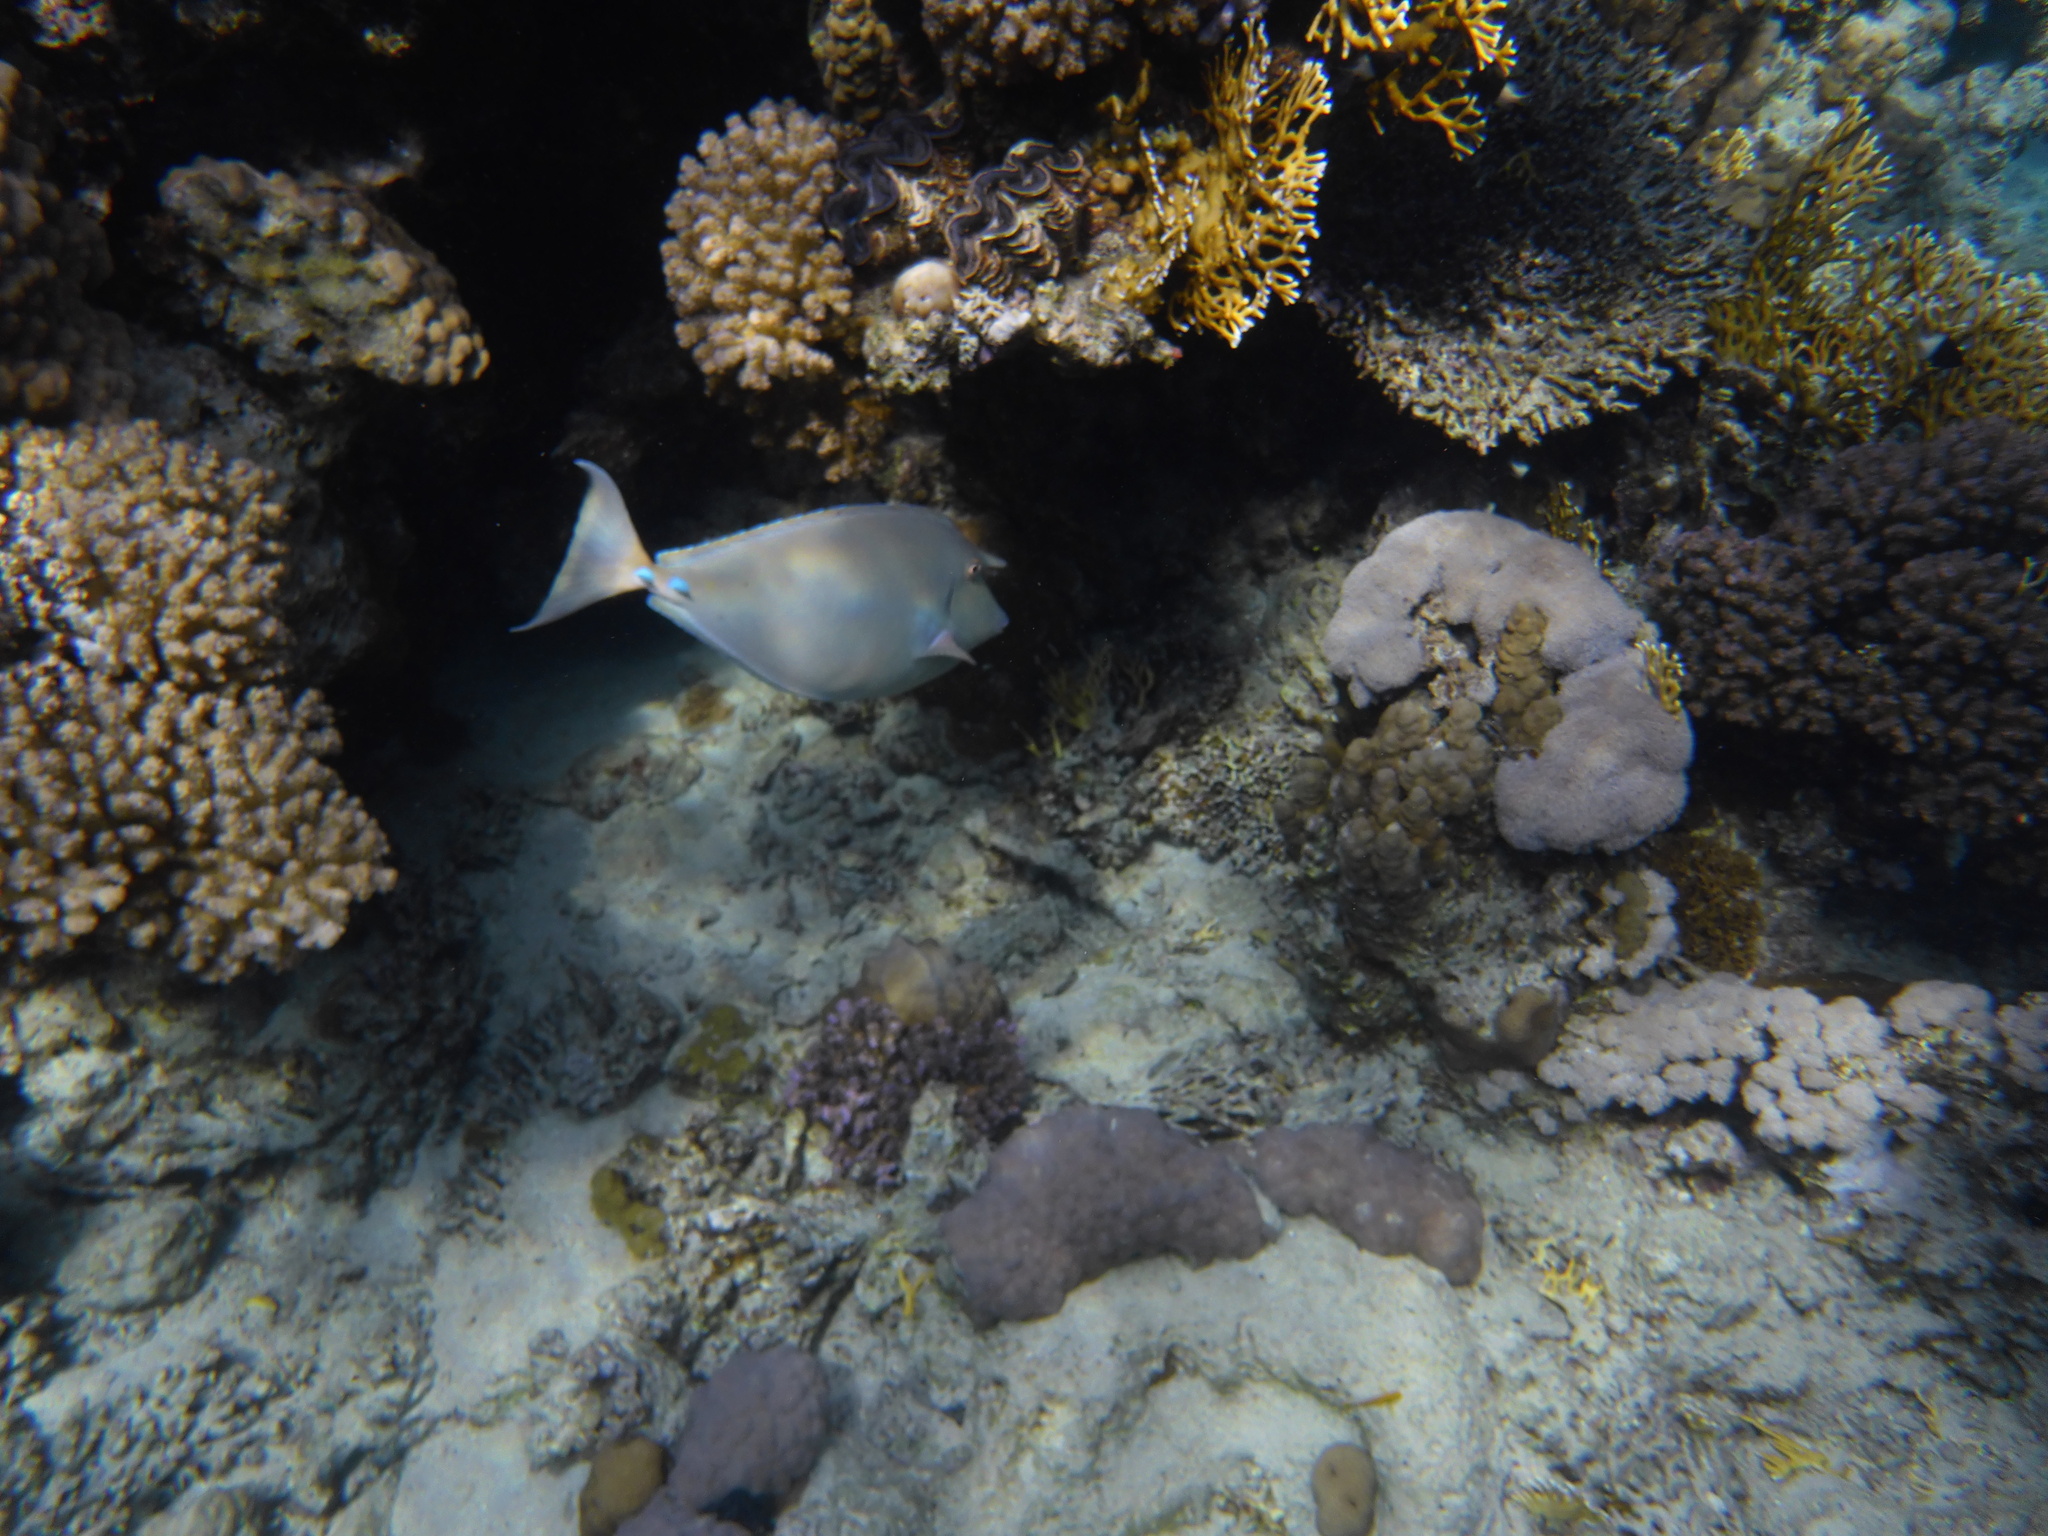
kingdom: Animalia
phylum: Chordata
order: Perciformes
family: Acanthuridae
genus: Naso
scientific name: Naso unicornis
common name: Bluespine unicornfish
